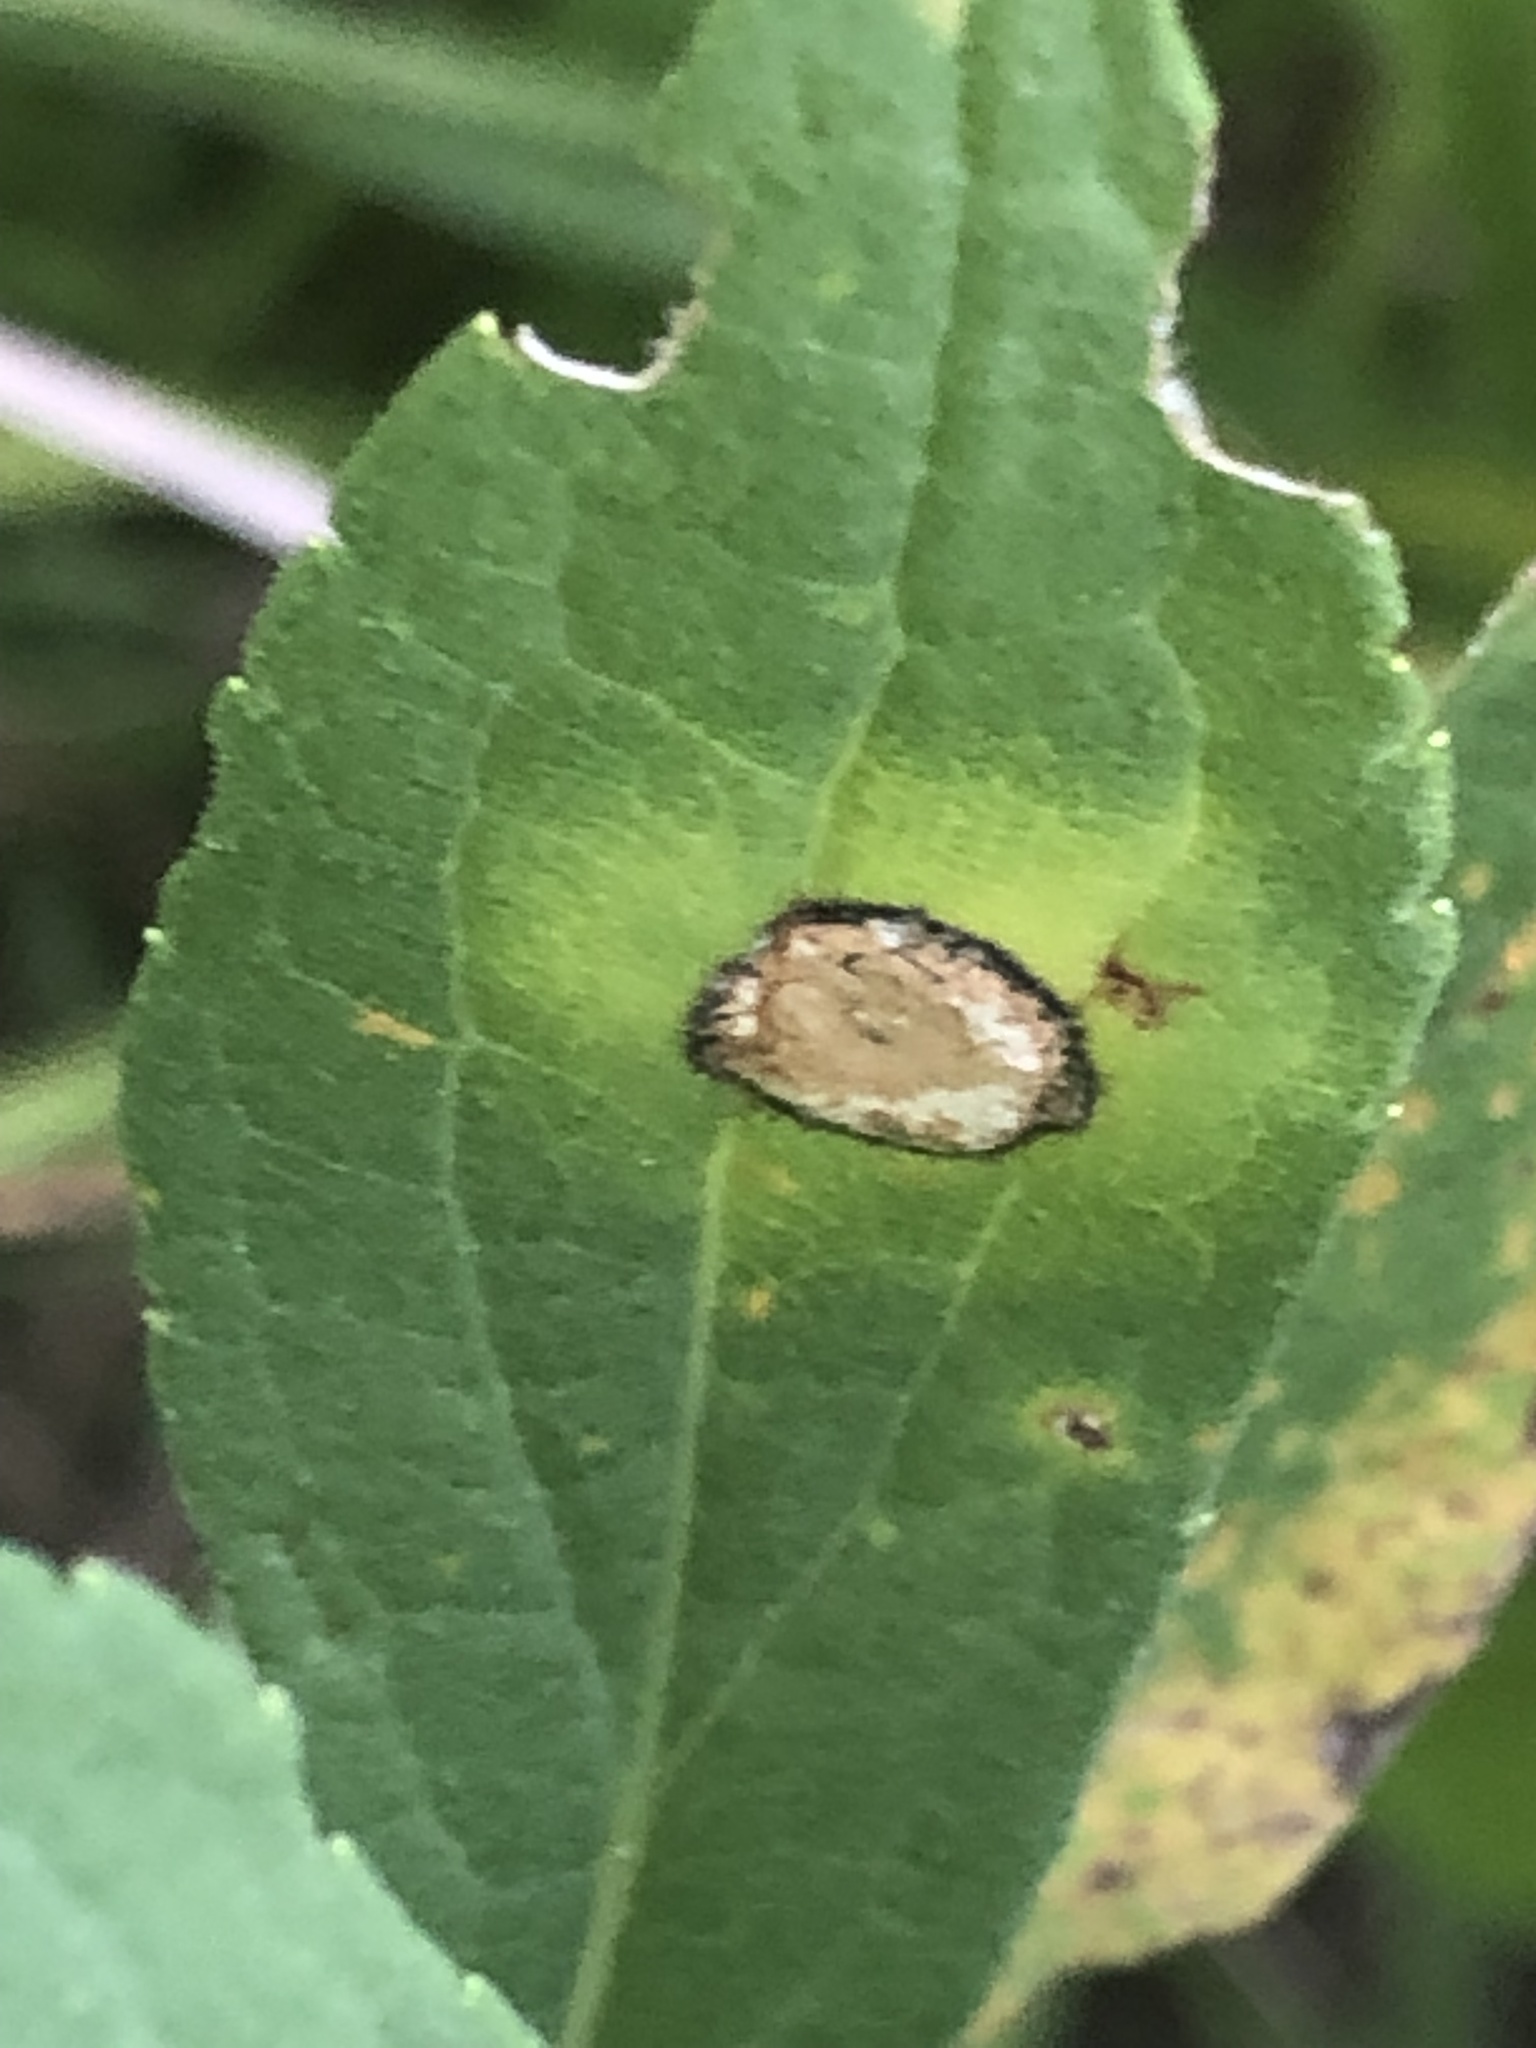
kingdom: Animalia
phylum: Arthropoda
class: Insecta
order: Diptera
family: Cecidomyiidae
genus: Asteromyia
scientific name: Asteromyia carbonifera
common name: Carbonifera goldenrod gall midge
